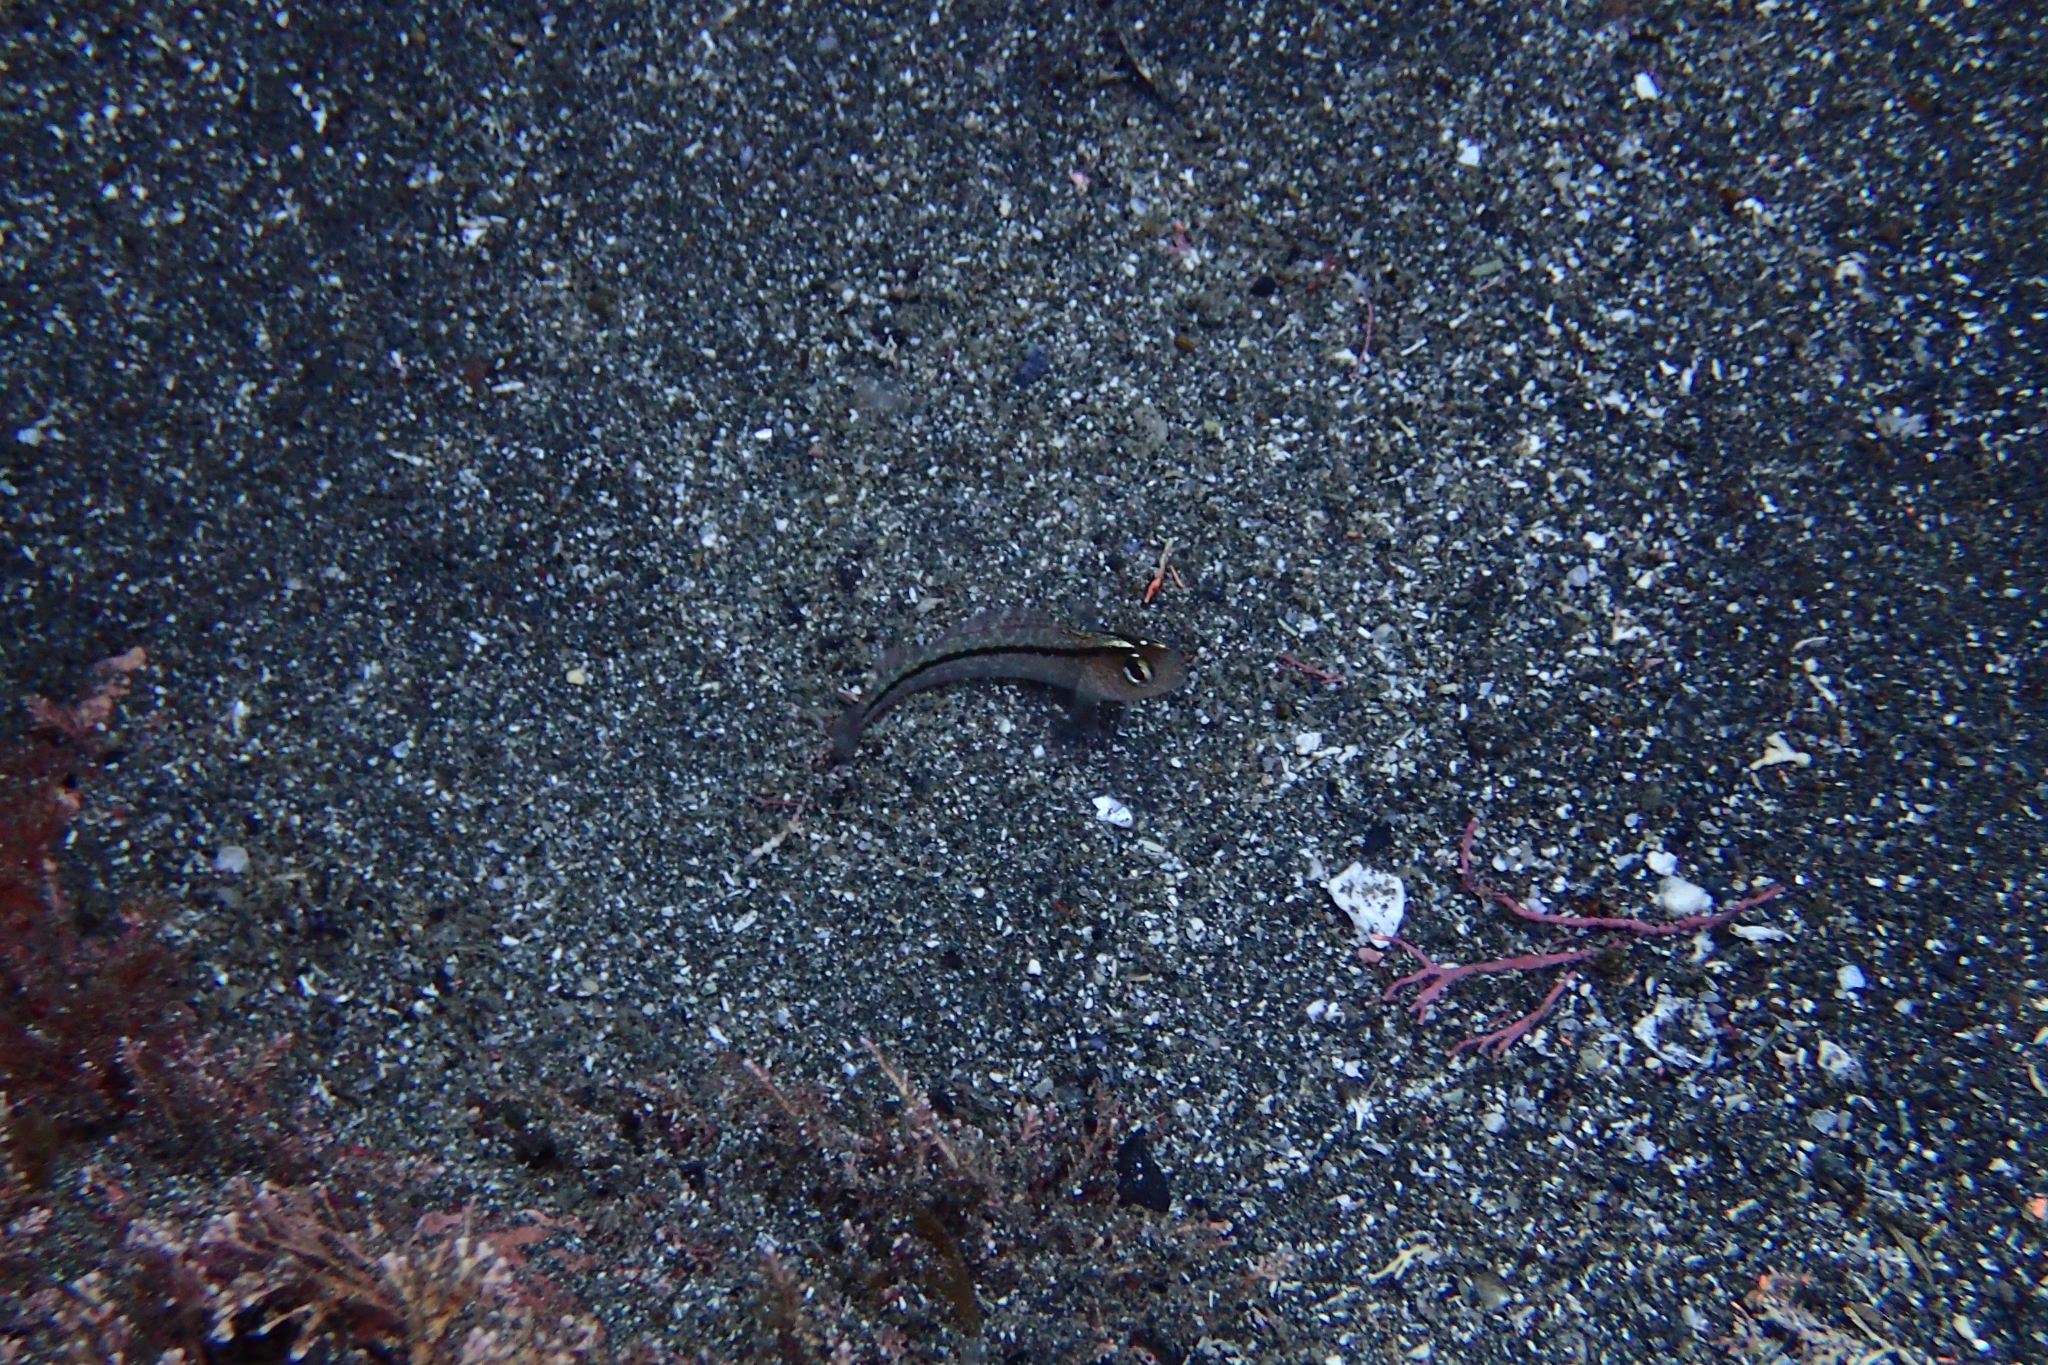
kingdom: Animalia
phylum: Chordata
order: Perciformes
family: Tripterygiidae
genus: Forsterygion
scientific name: Forsterygion lapillum
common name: Common triplefin
